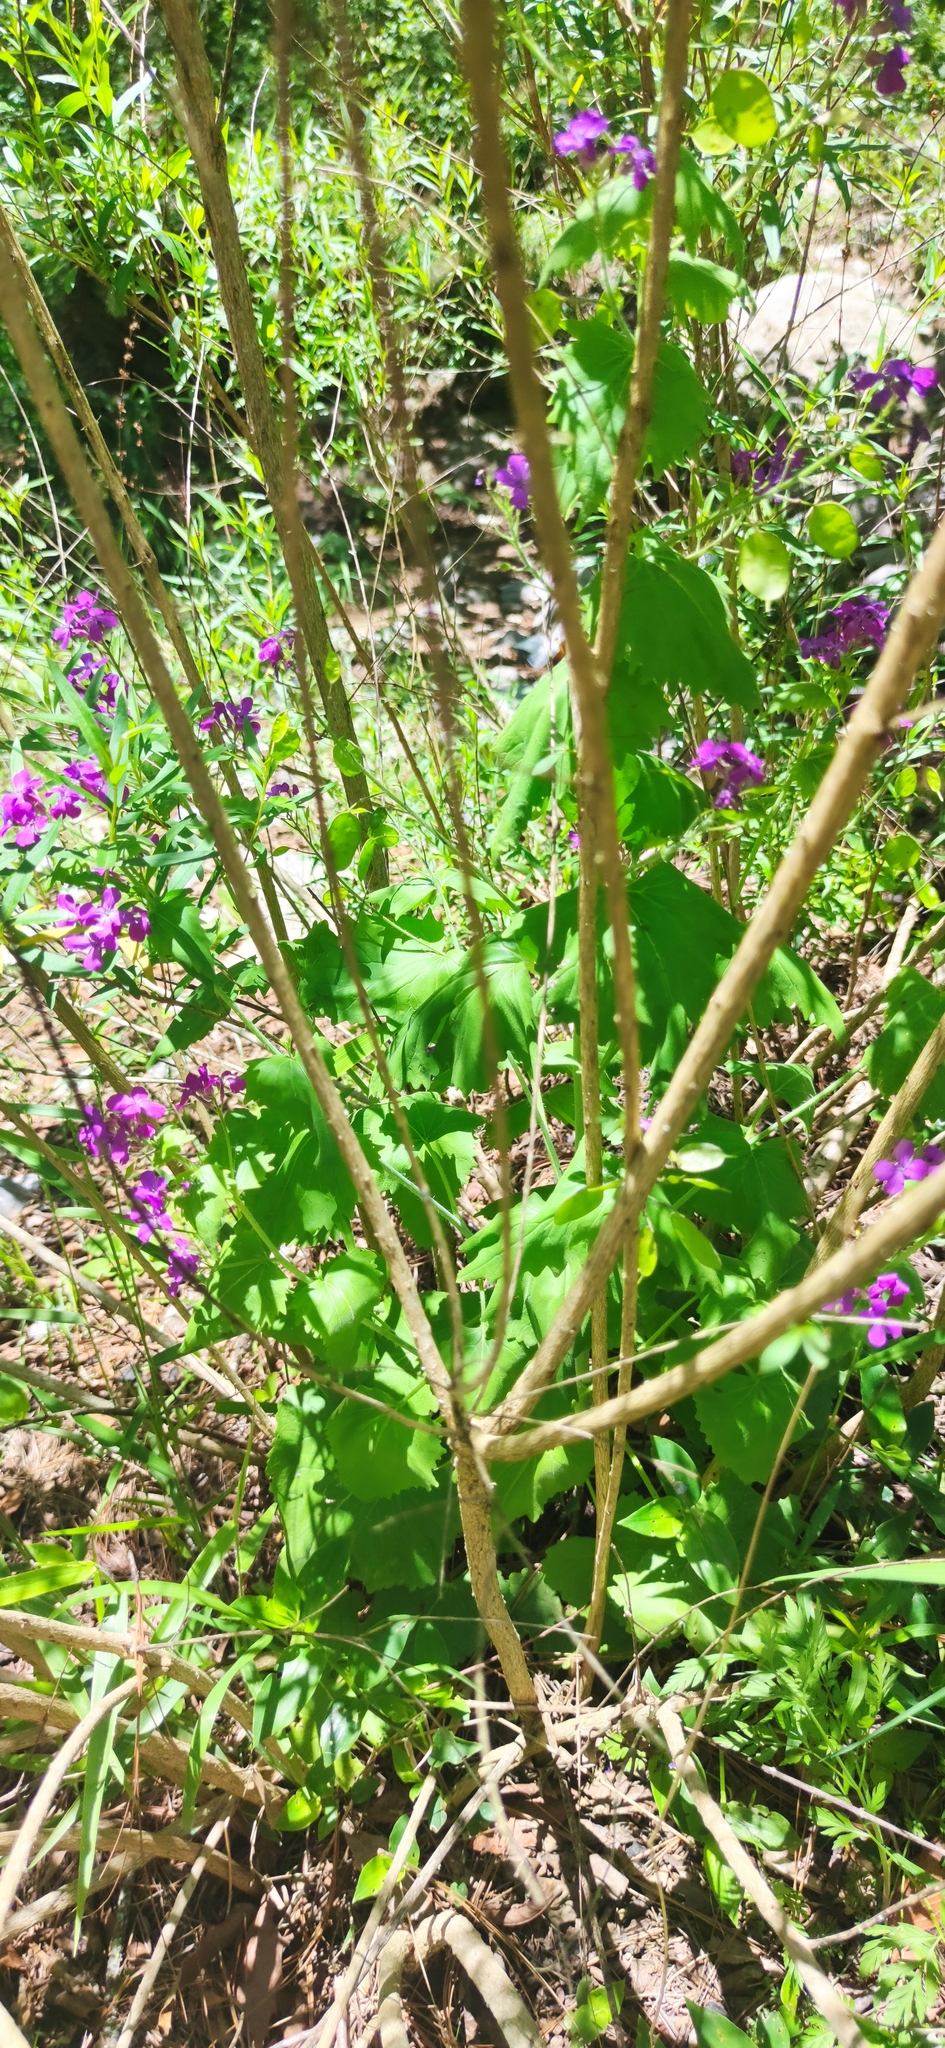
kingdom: Plantae
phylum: Tracheophyta
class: Magnoliopsida
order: Brassicales
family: Brassicaceae
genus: Lunaria
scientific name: Lunaria annua
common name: Honesty
